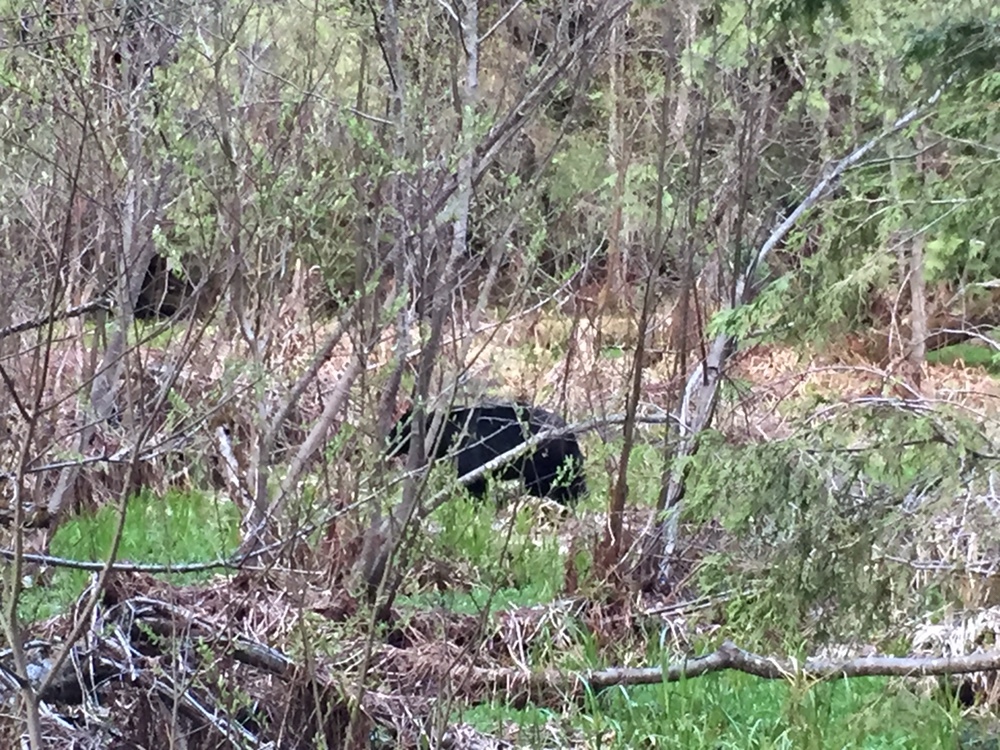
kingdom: Animalia
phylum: Chordata
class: Mammalia
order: Carnivora
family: Ursidae
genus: Ursus
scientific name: Ursus americanus
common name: American black bear
